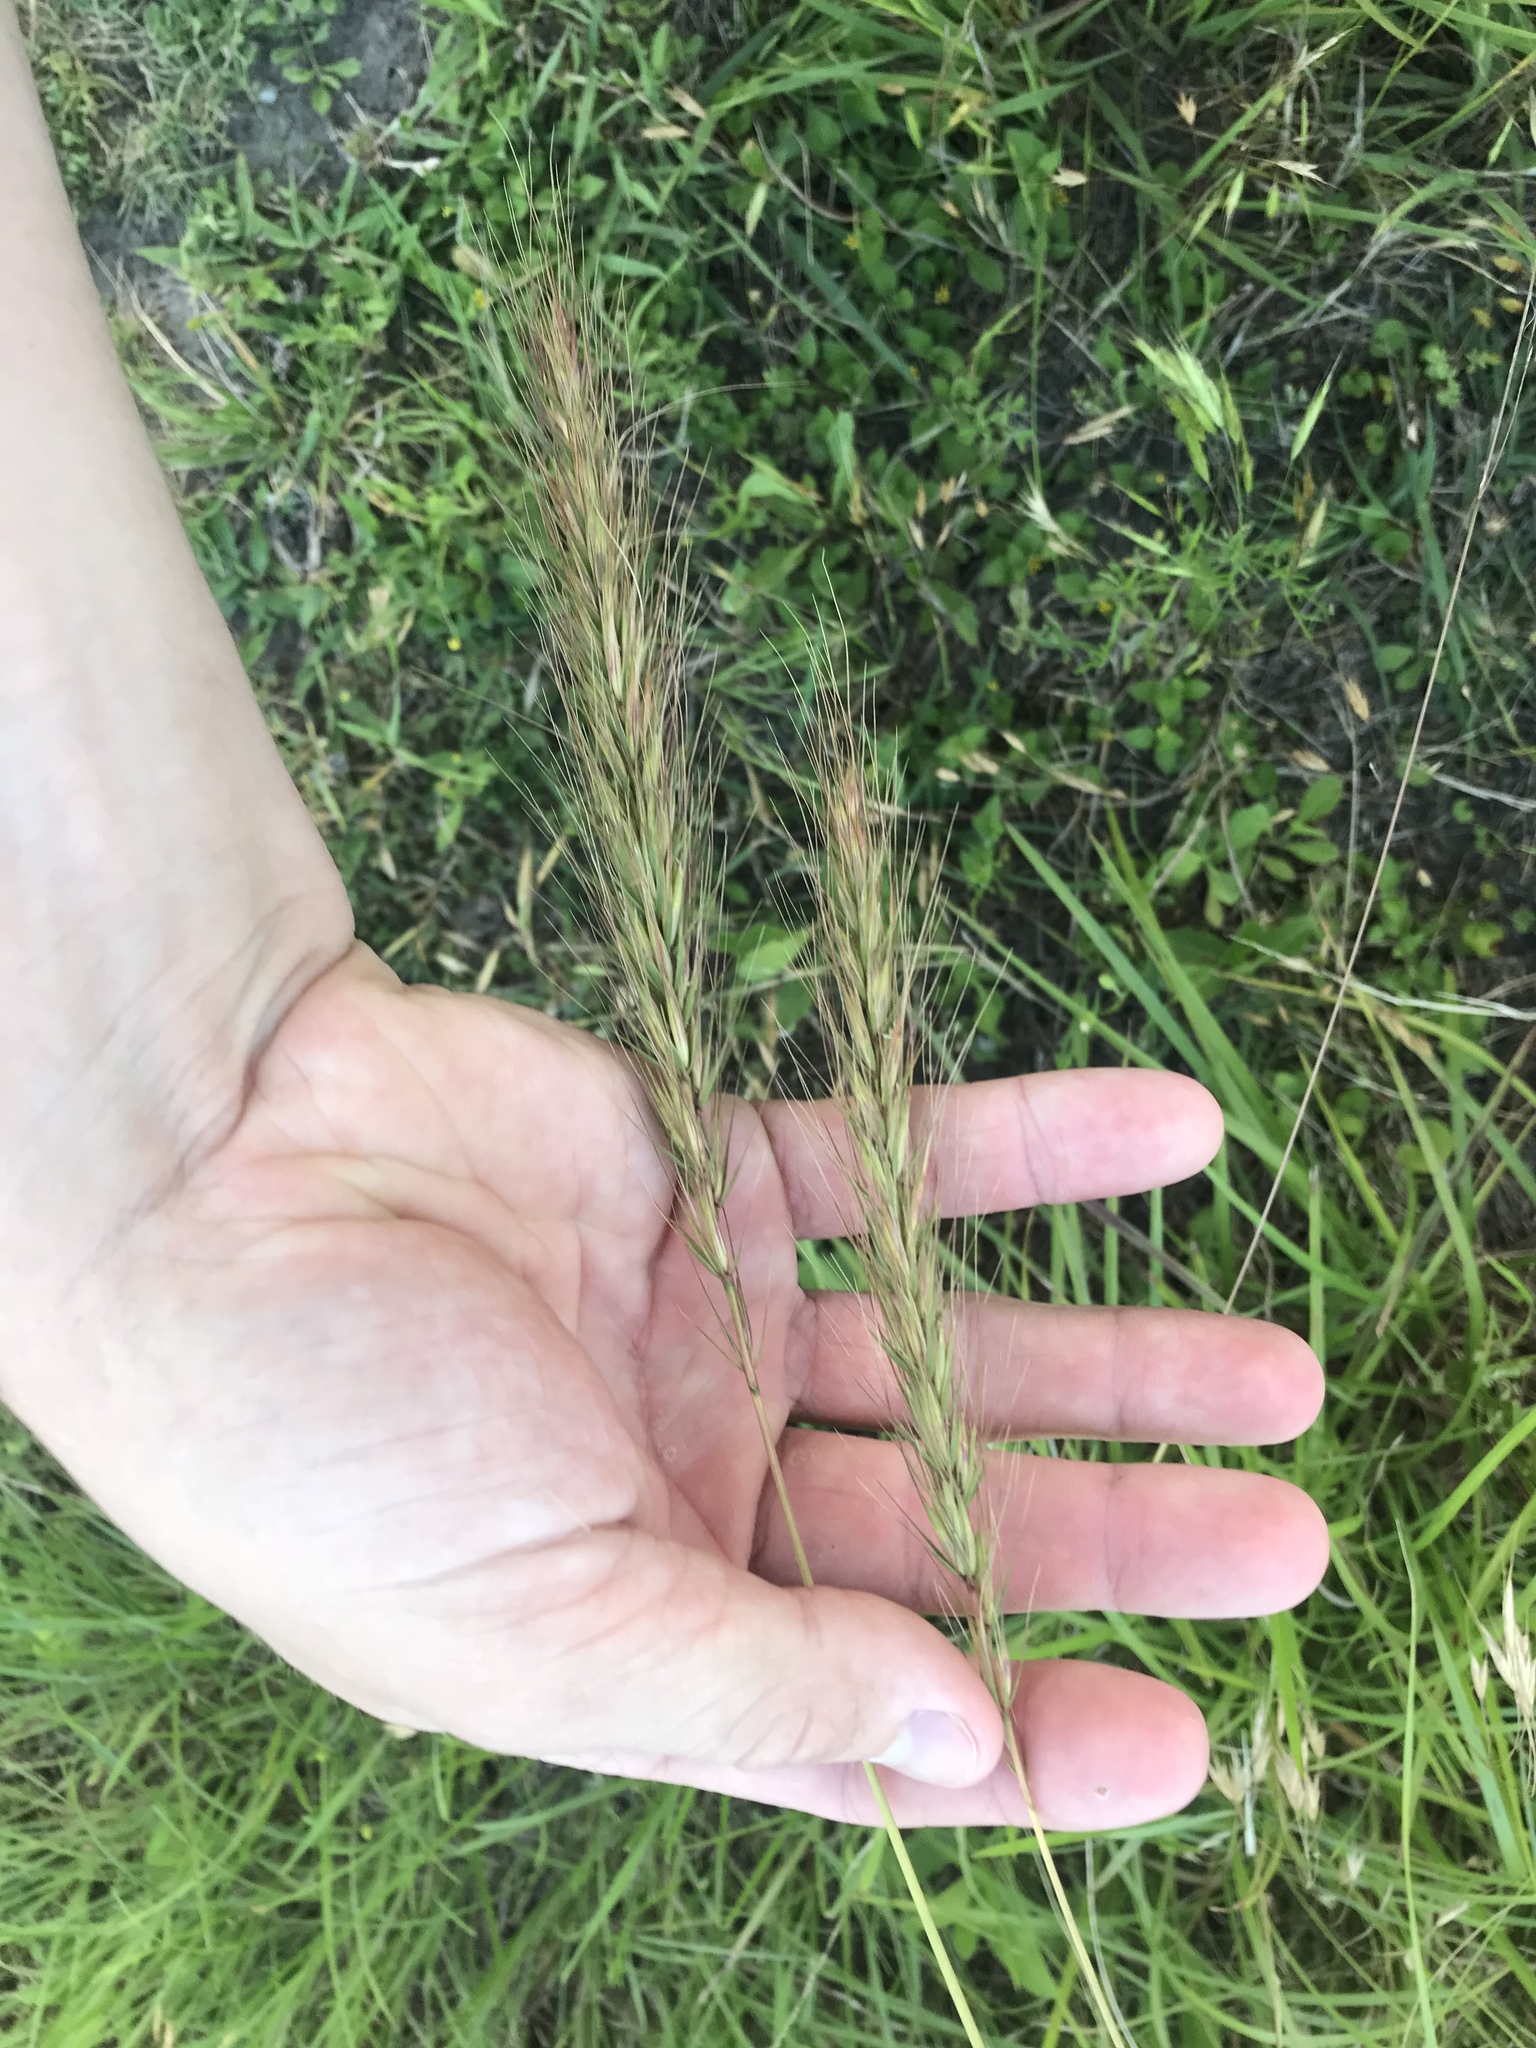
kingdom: Plantae
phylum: Tracheophyta
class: Liliopsida
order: Poales
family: Poaceae
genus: Elymus
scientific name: Elymus canadensis
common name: Canada wild rye
